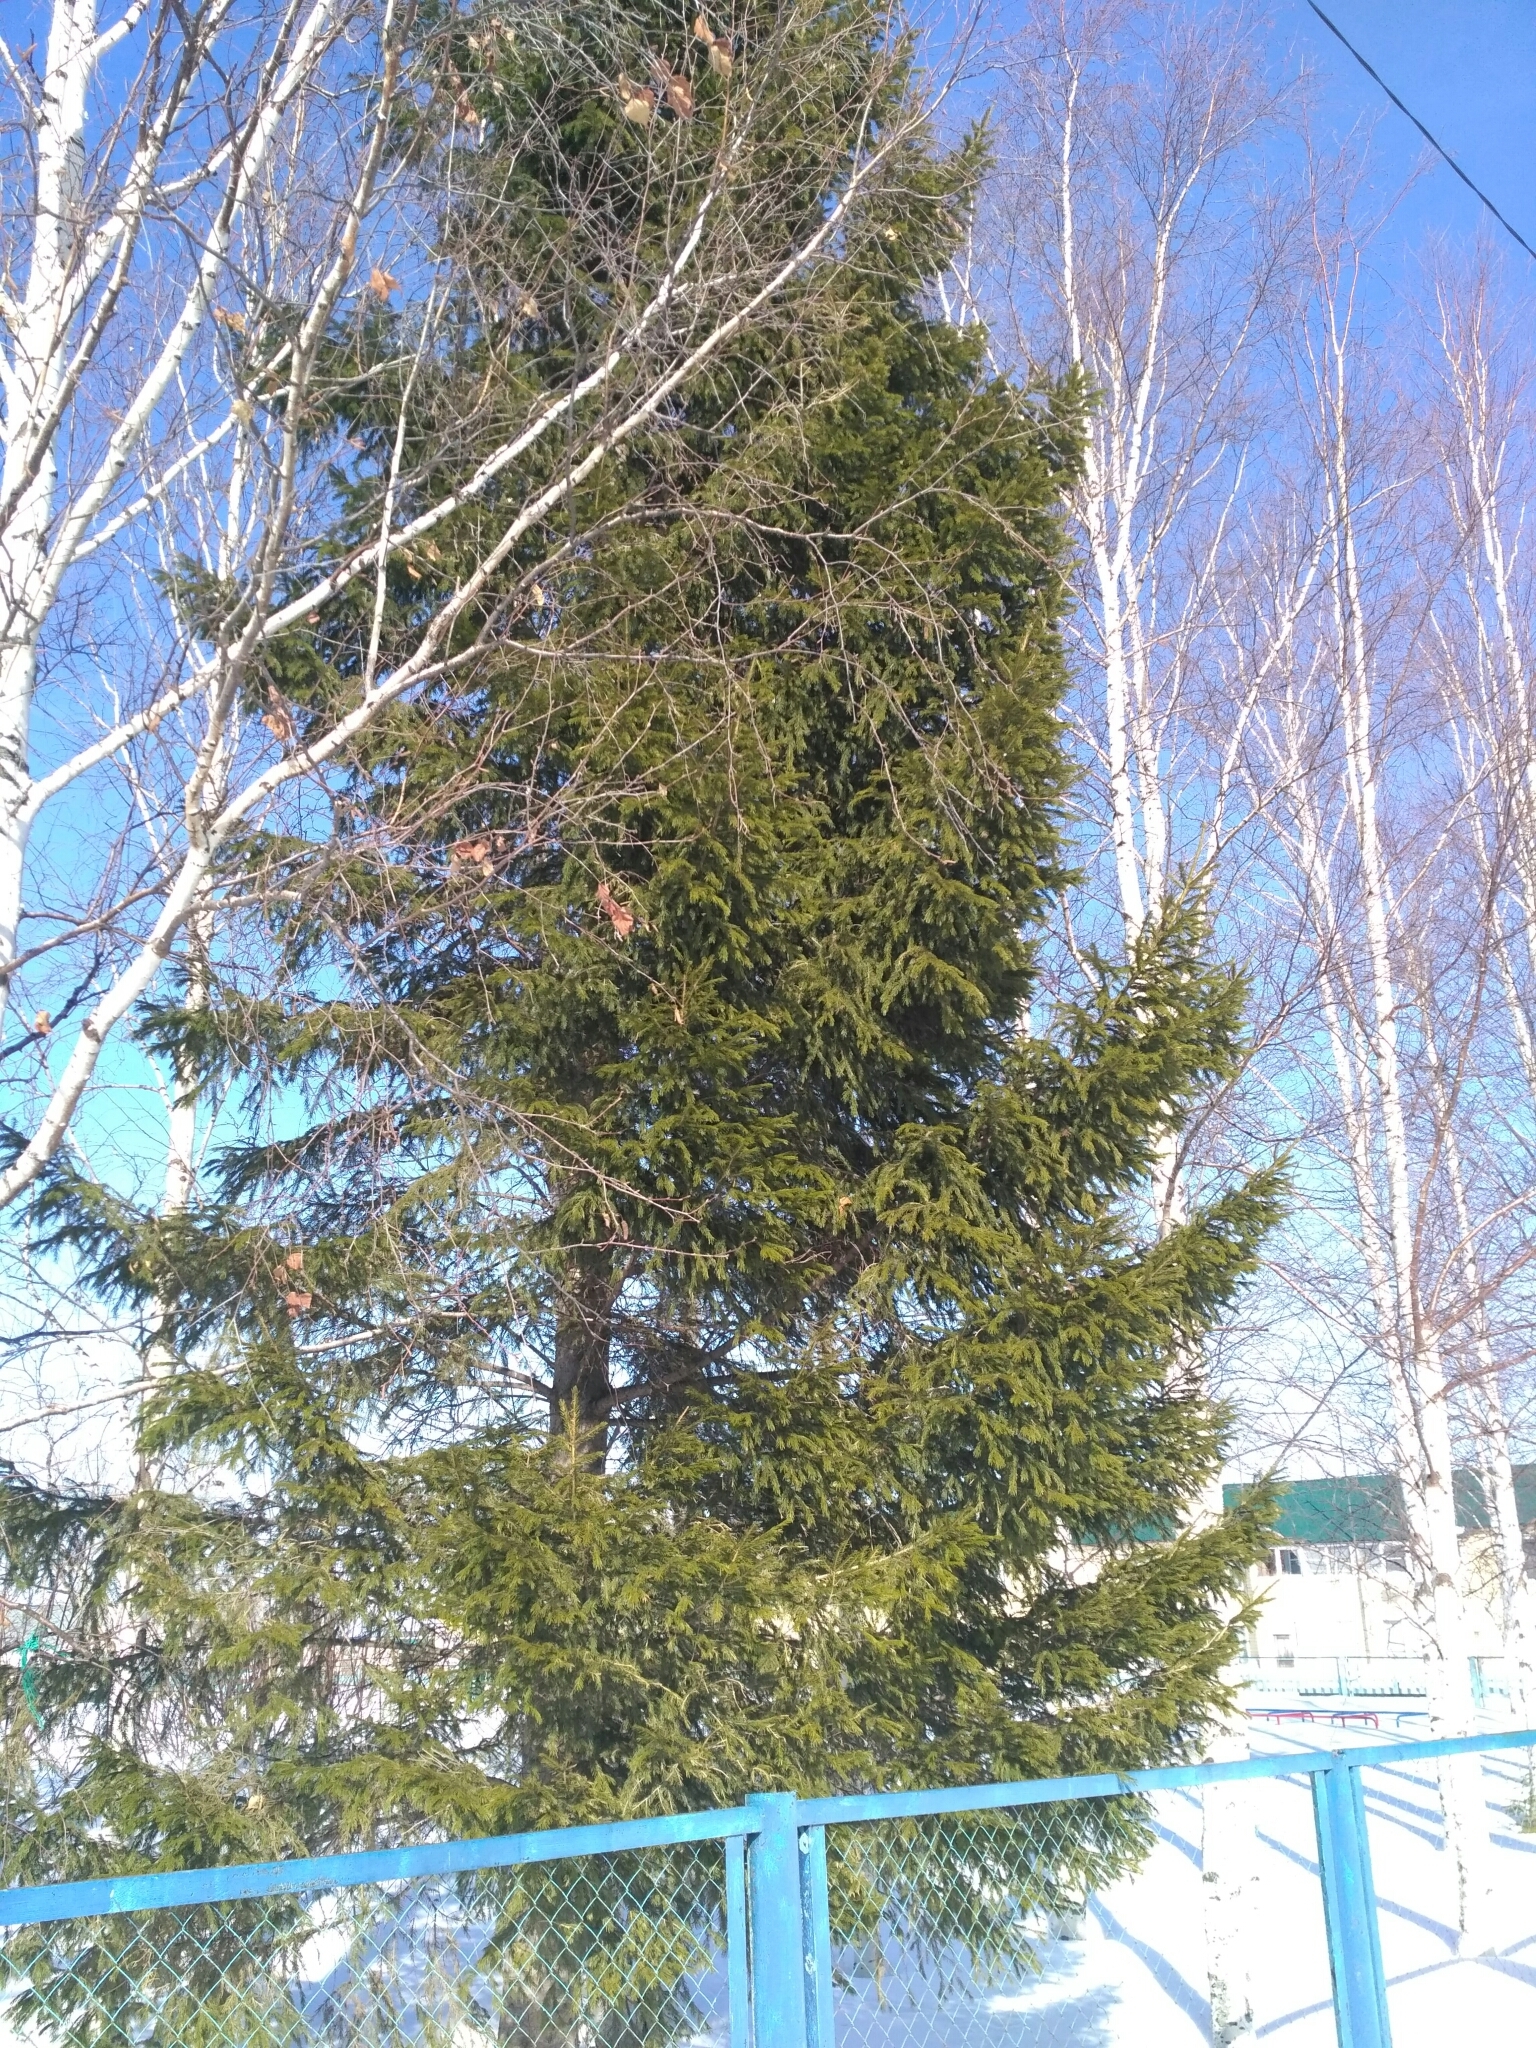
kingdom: Plantae
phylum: Tracheophyta
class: Pinopsida
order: Pinales
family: Pinaceae
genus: Picea
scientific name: Picea obovata
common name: Siberian spruce
